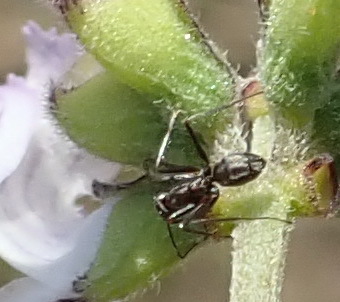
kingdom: Animalia
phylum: Arthropoda
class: Insecta
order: Hymenoptera
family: Formicidae
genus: Anoplolepis
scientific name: Anoplolepis custodiens
